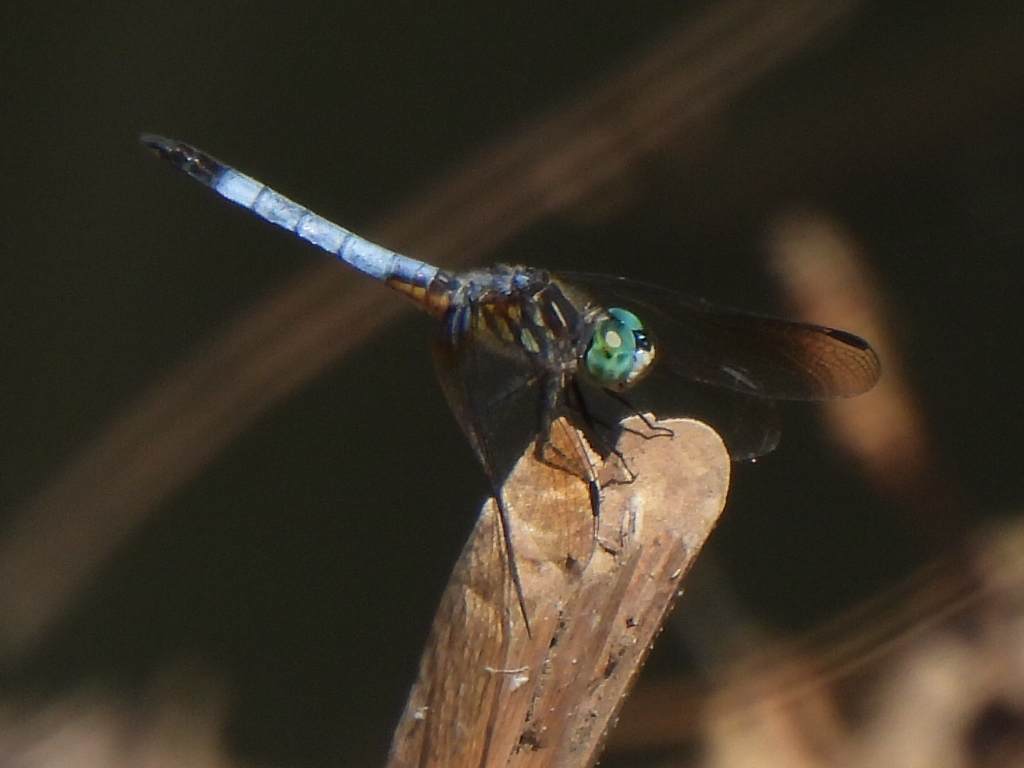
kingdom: Animalia
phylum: Arthropoda
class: Insecta
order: Odonata
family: Libellulidae
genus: Pachydiplax
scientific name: Pachydiplax longipennis
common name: Blue dasher
